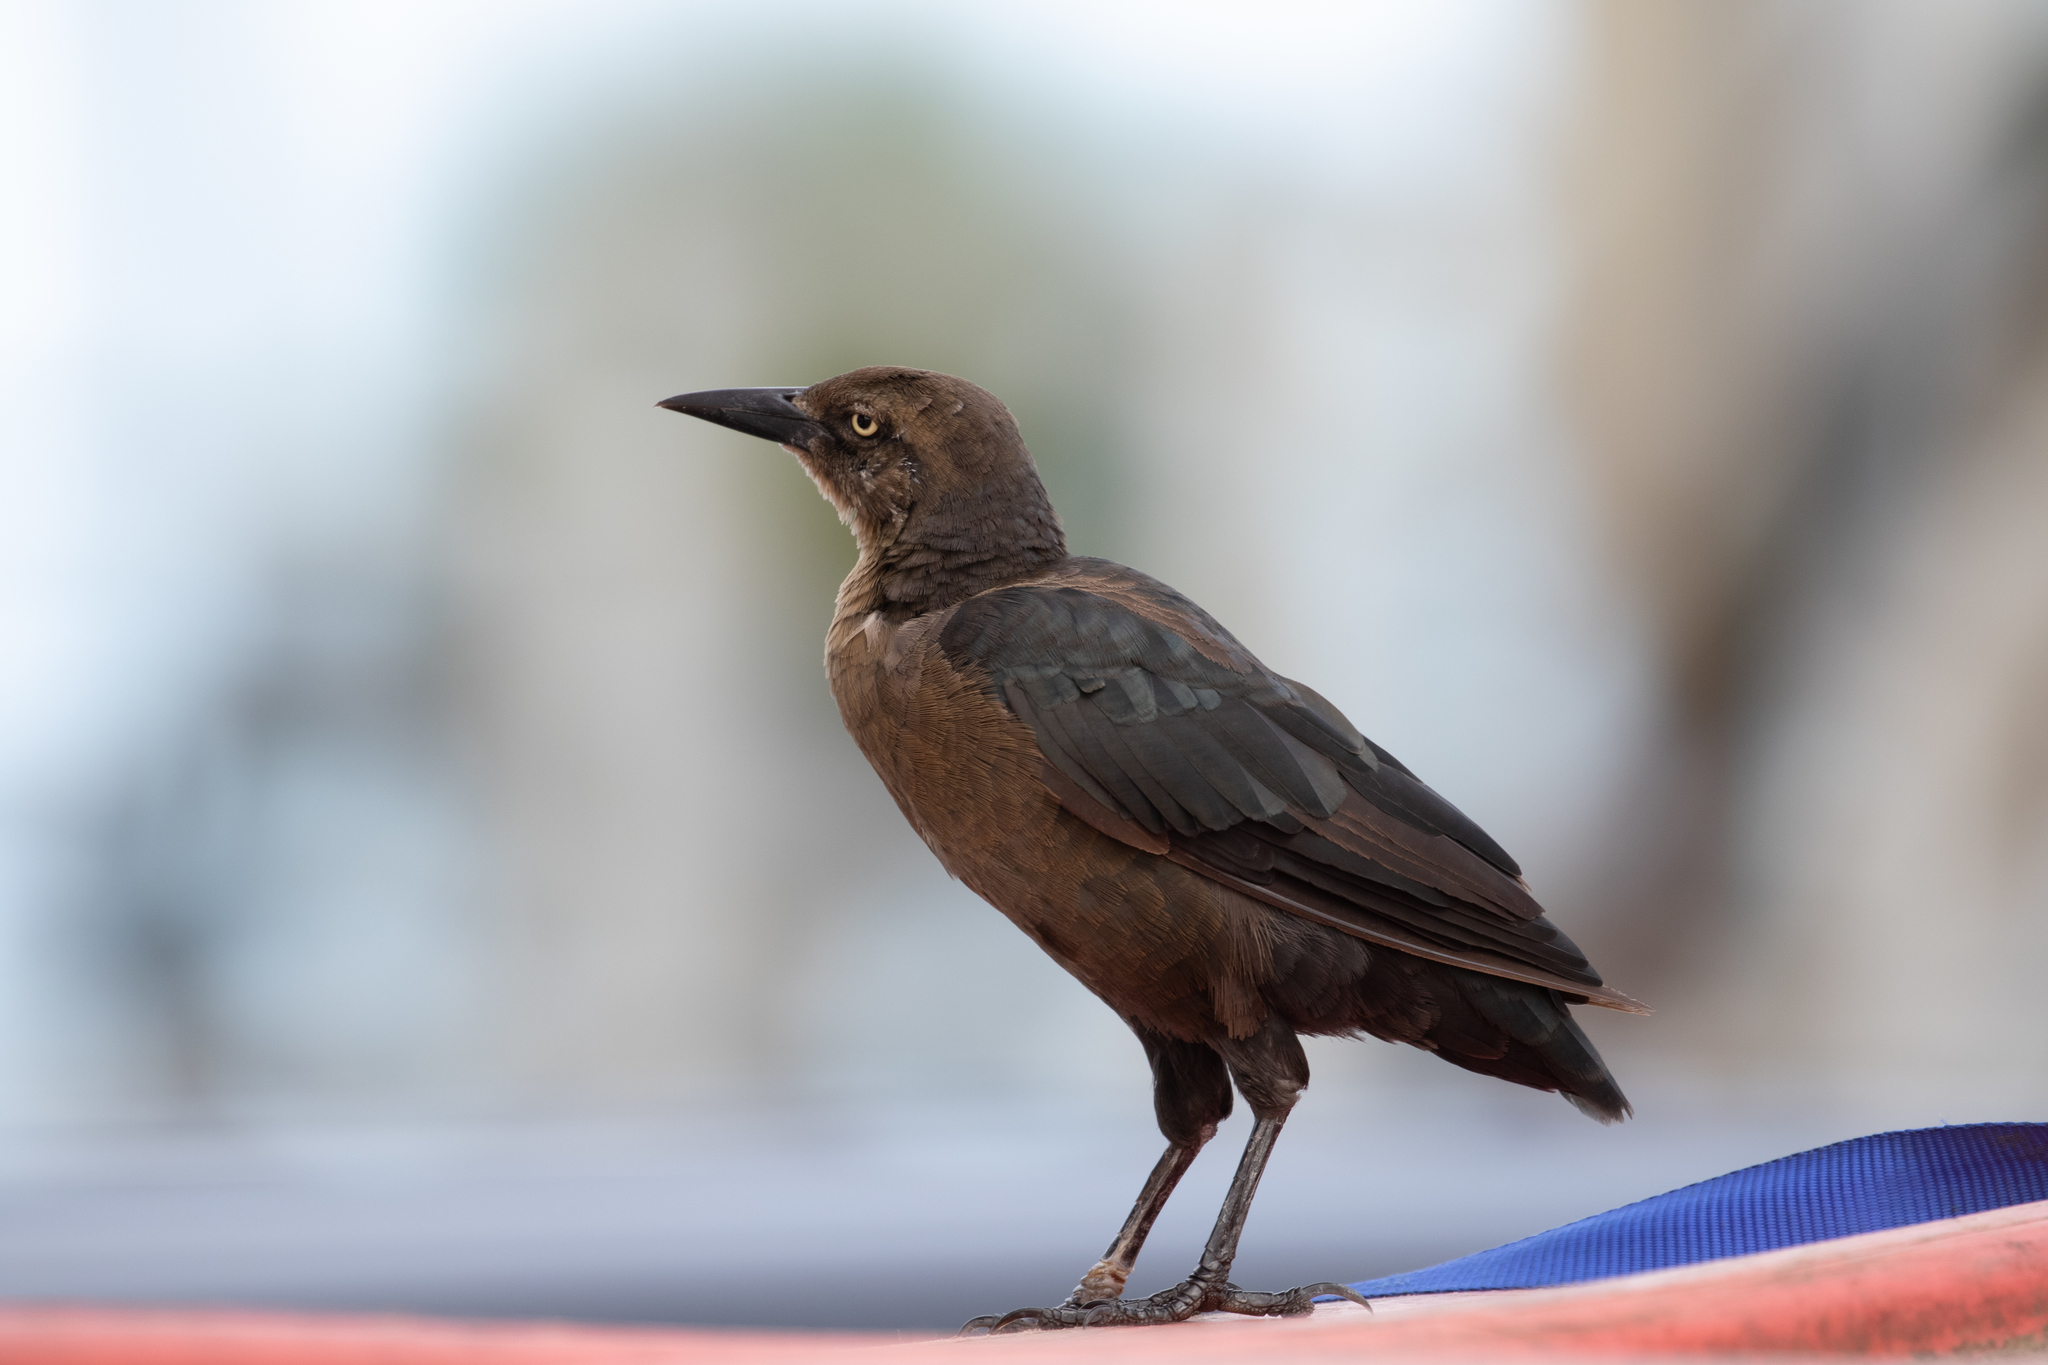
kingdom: Animalia
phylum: Chordata
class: Aves
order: Passeriformes
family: Icteridae
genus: Quiscalus
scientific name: Quiscalus mexicanus
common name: Great-tailed grackle
